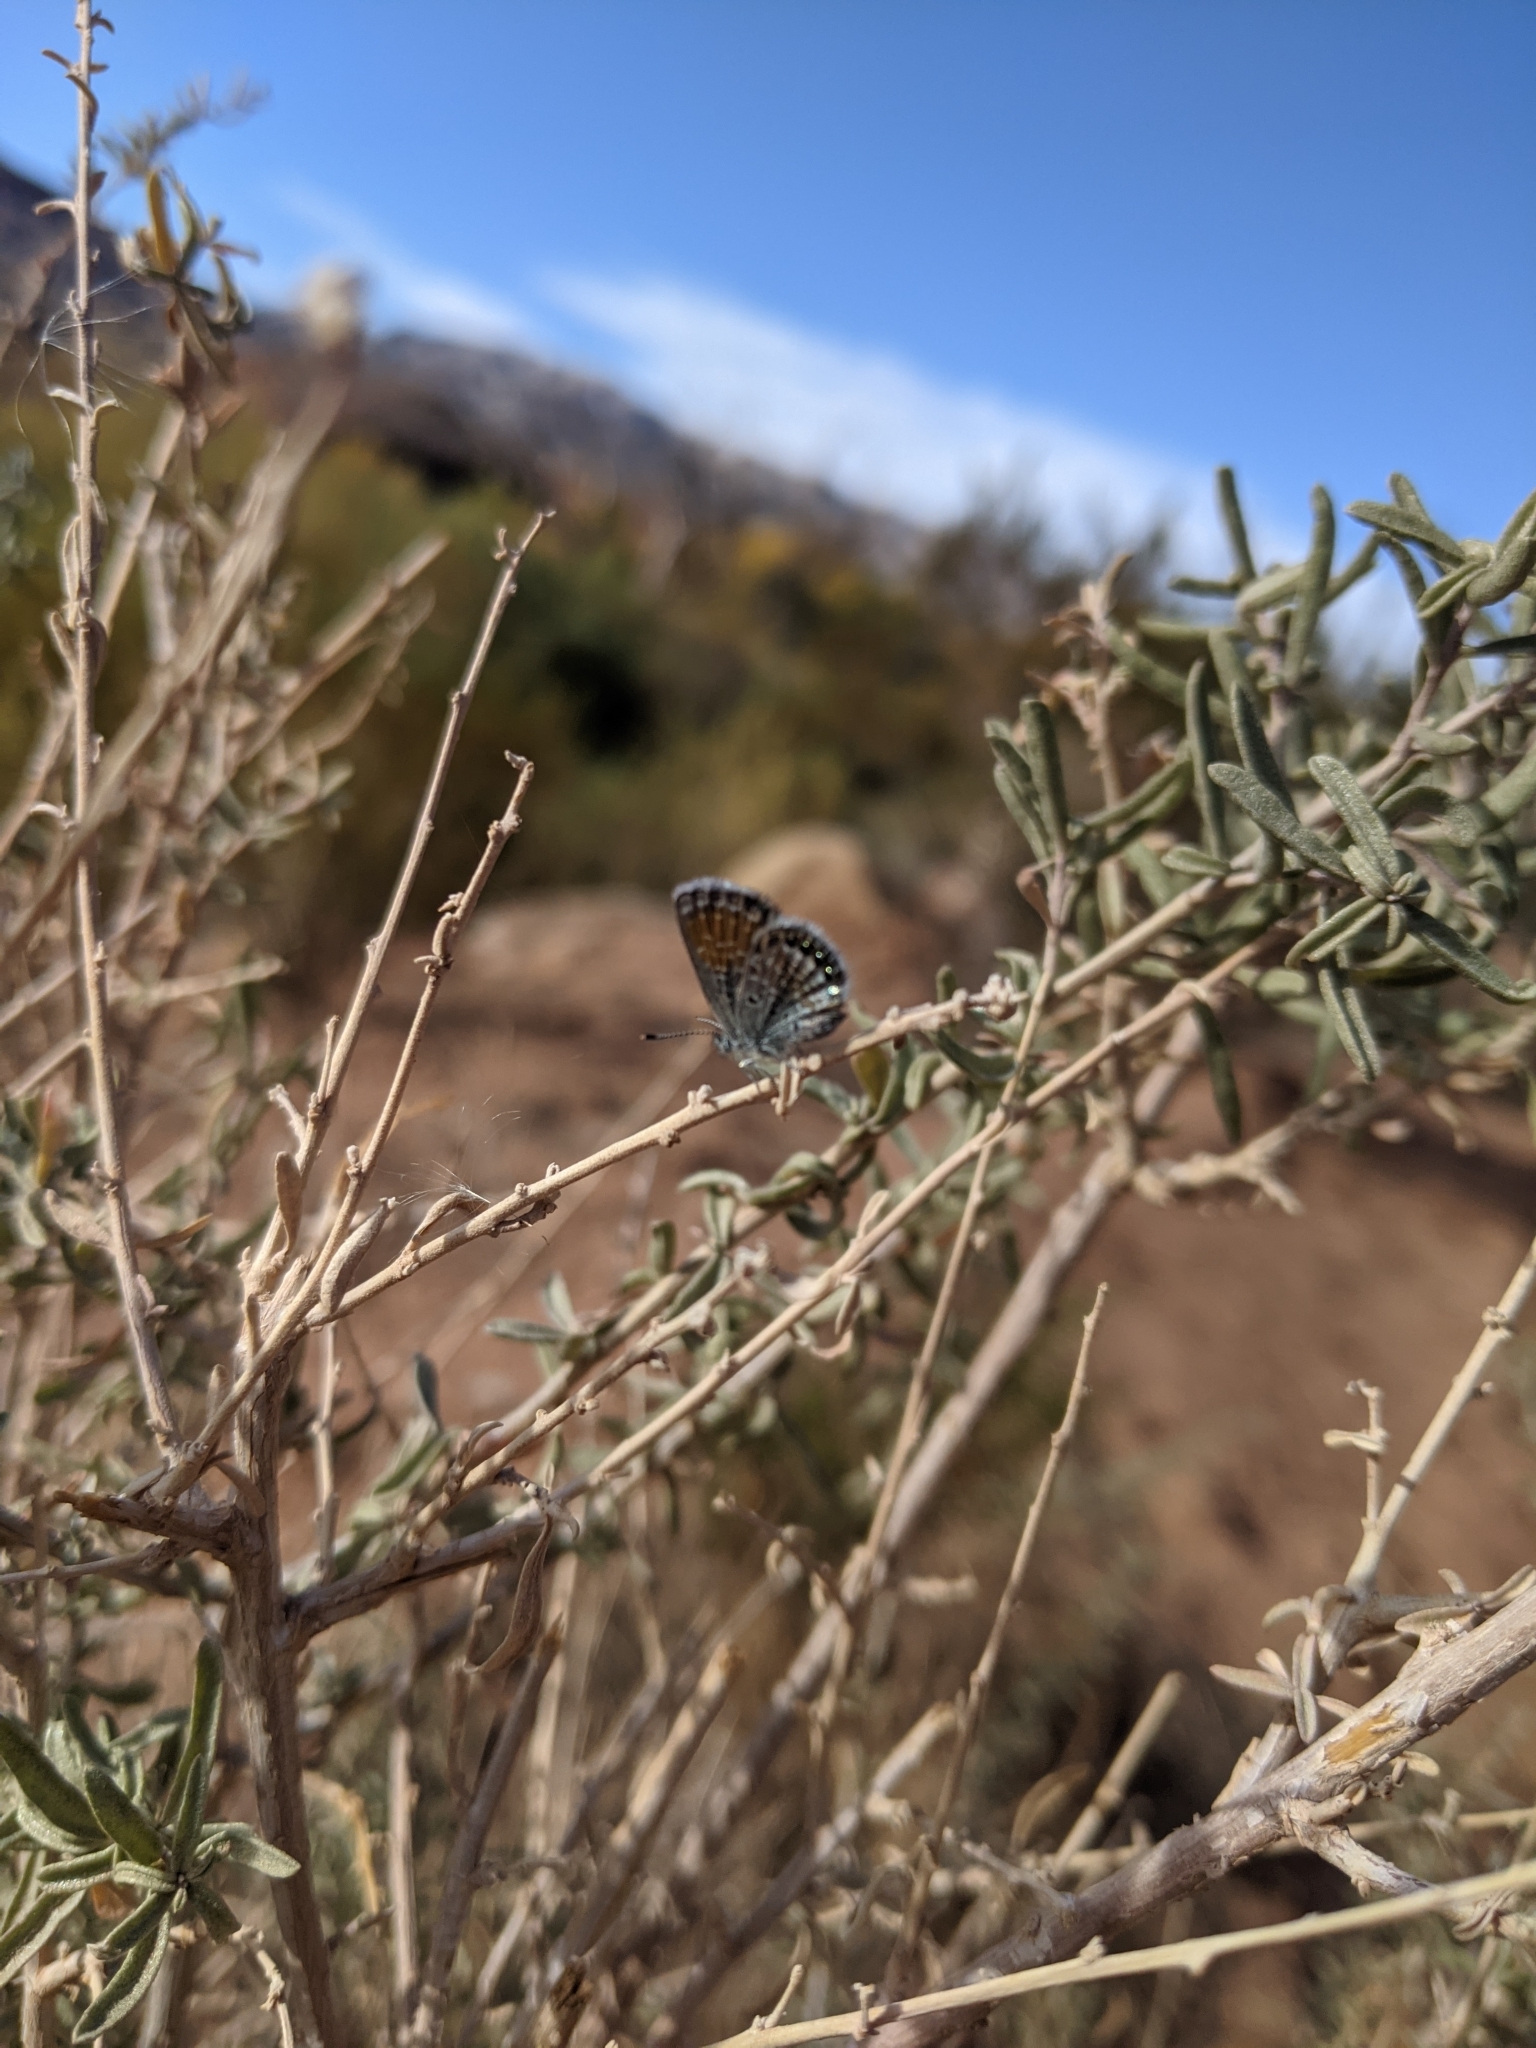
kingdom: Animalia
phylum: Arthropoda
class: Insecta
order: Lepidoptera
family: Lycaenidae
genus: Brephidium
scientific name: Brephidium exilis
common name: Pygmy blue
